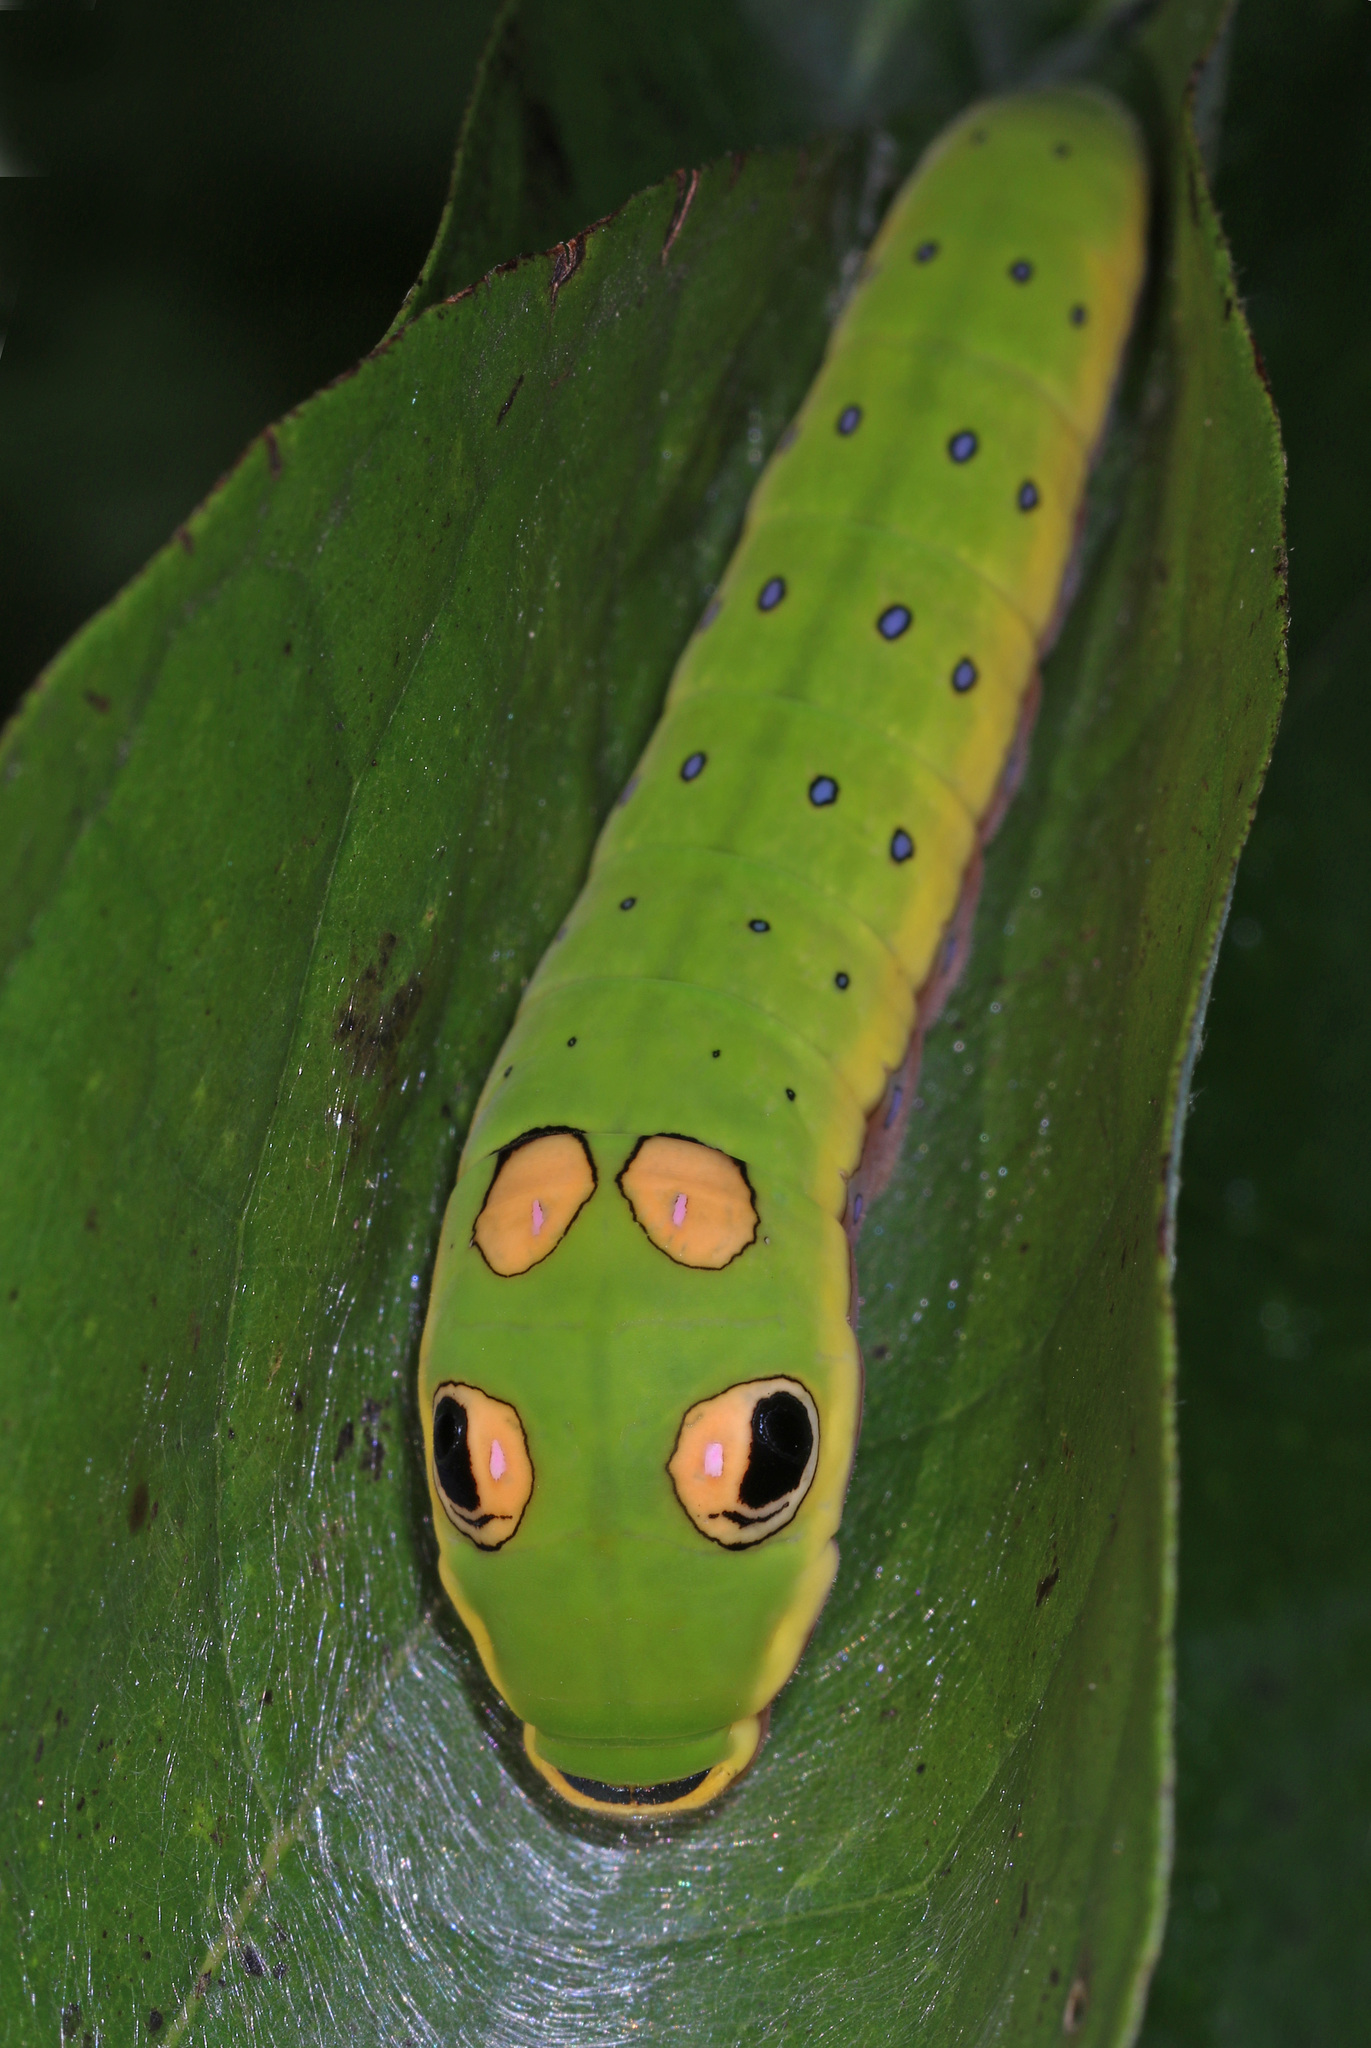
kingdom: Animalia
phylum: Arthropoda
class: Insecta
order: Lepidoptera
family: Papilionidae
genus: Papilio
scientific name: Papilio troilus
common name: Spicebush swallowtail
